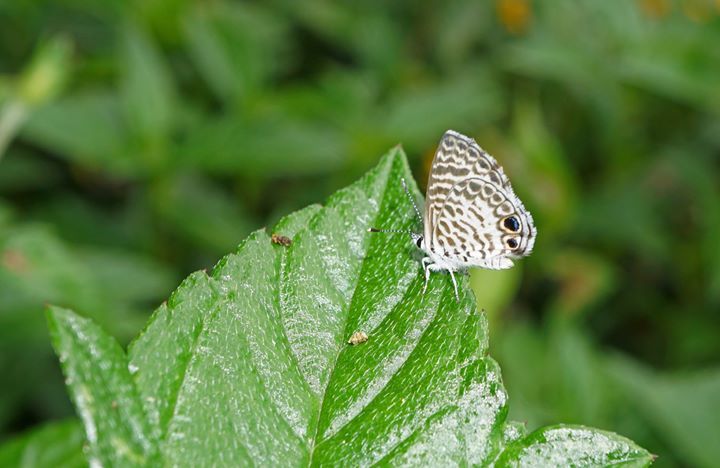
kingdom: Animalia
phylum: Arthropoda
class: Insecta
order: Lepidoptera
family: Lycaenidae
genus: Leptotes
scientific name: Leptotes cassius
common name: Cassius blue
